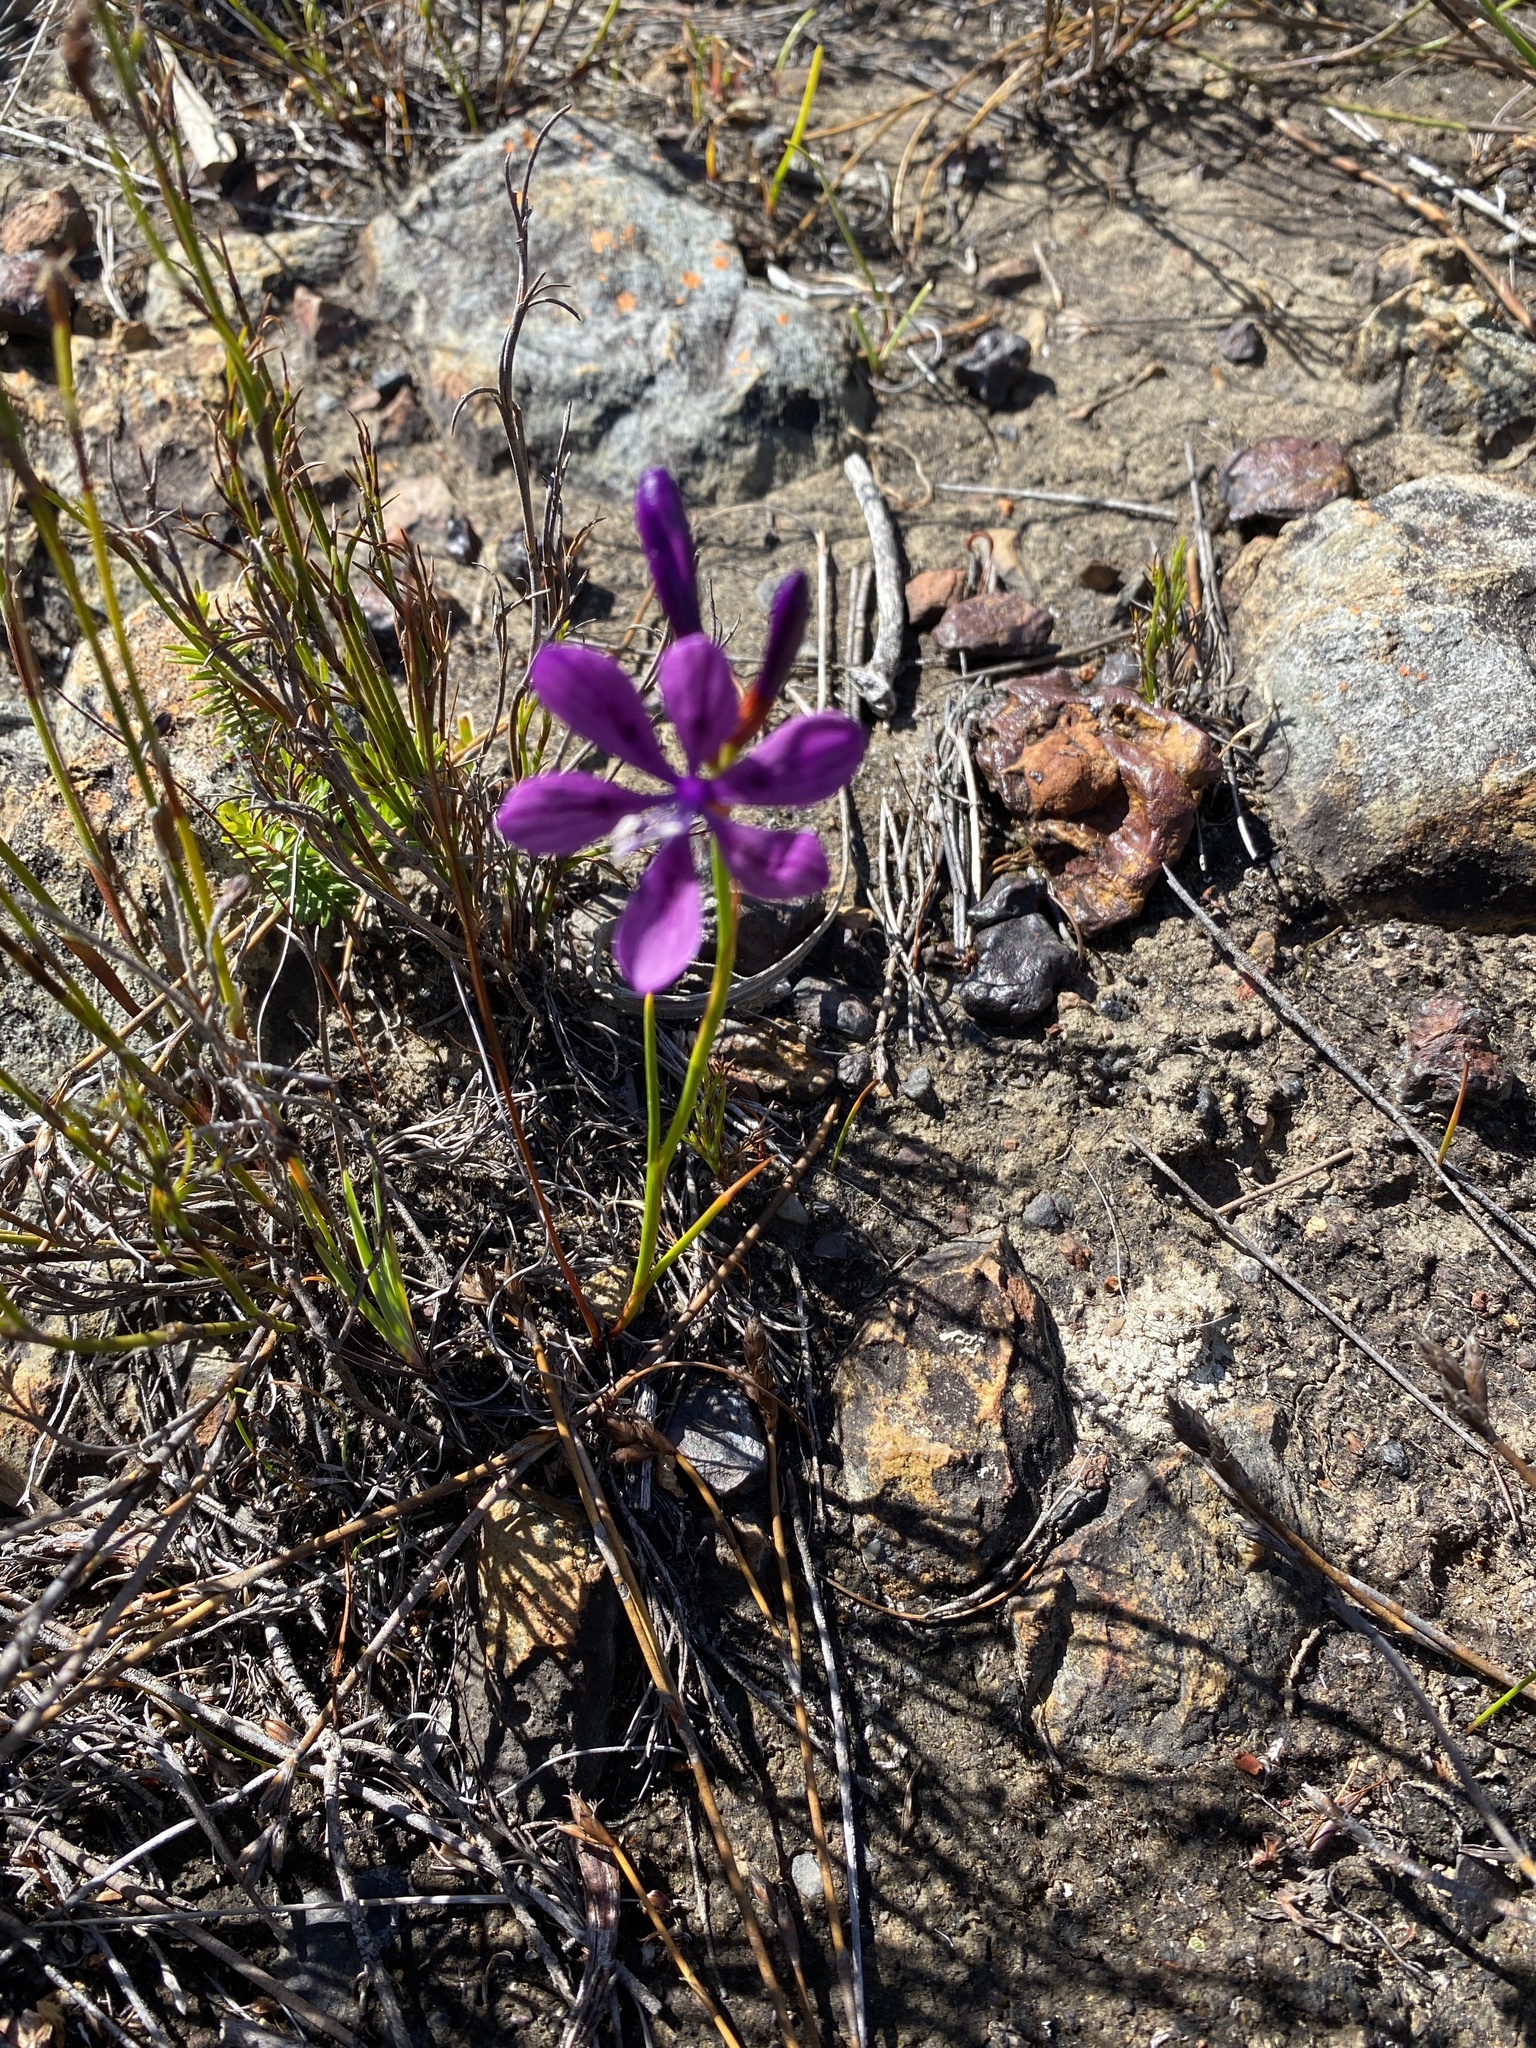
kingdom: Plantae
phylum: Tracheophyta
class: Liliopsida
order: Asparagales
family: Iridaceae
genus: Thereianthus
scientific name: Thereianthus bracteolatus
